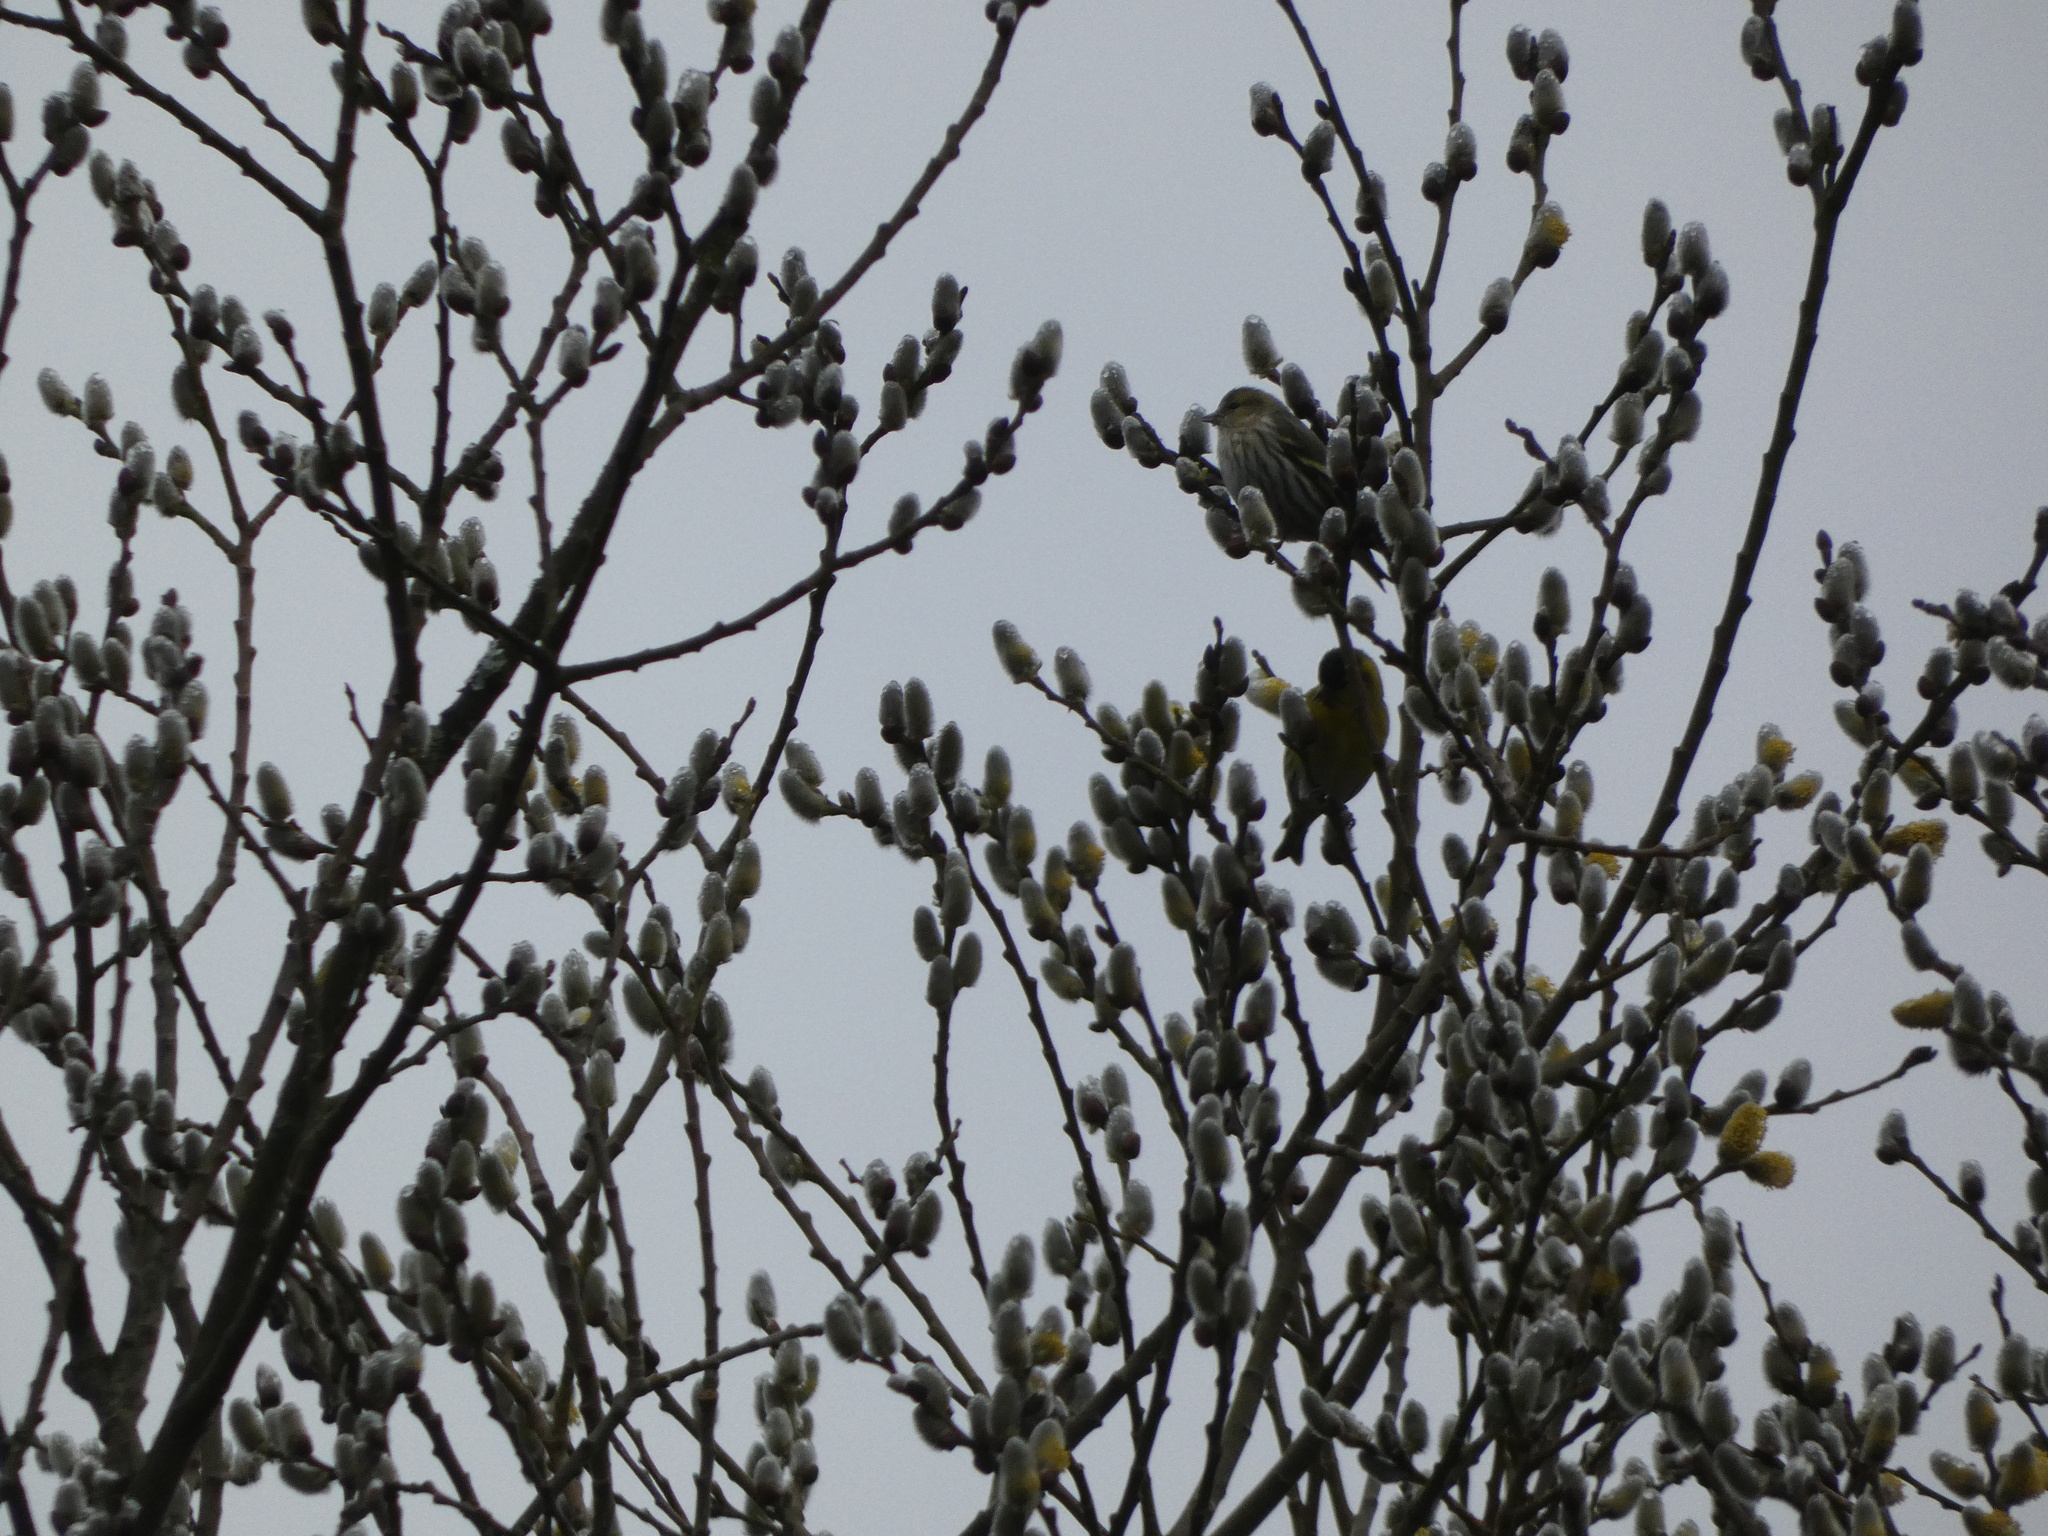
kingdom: Animalia
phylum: Chordata
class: Aves
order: Passeriformes
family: Fringillidae
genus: Spinus
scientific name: Spinus spinus
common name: Eurasian siskin
